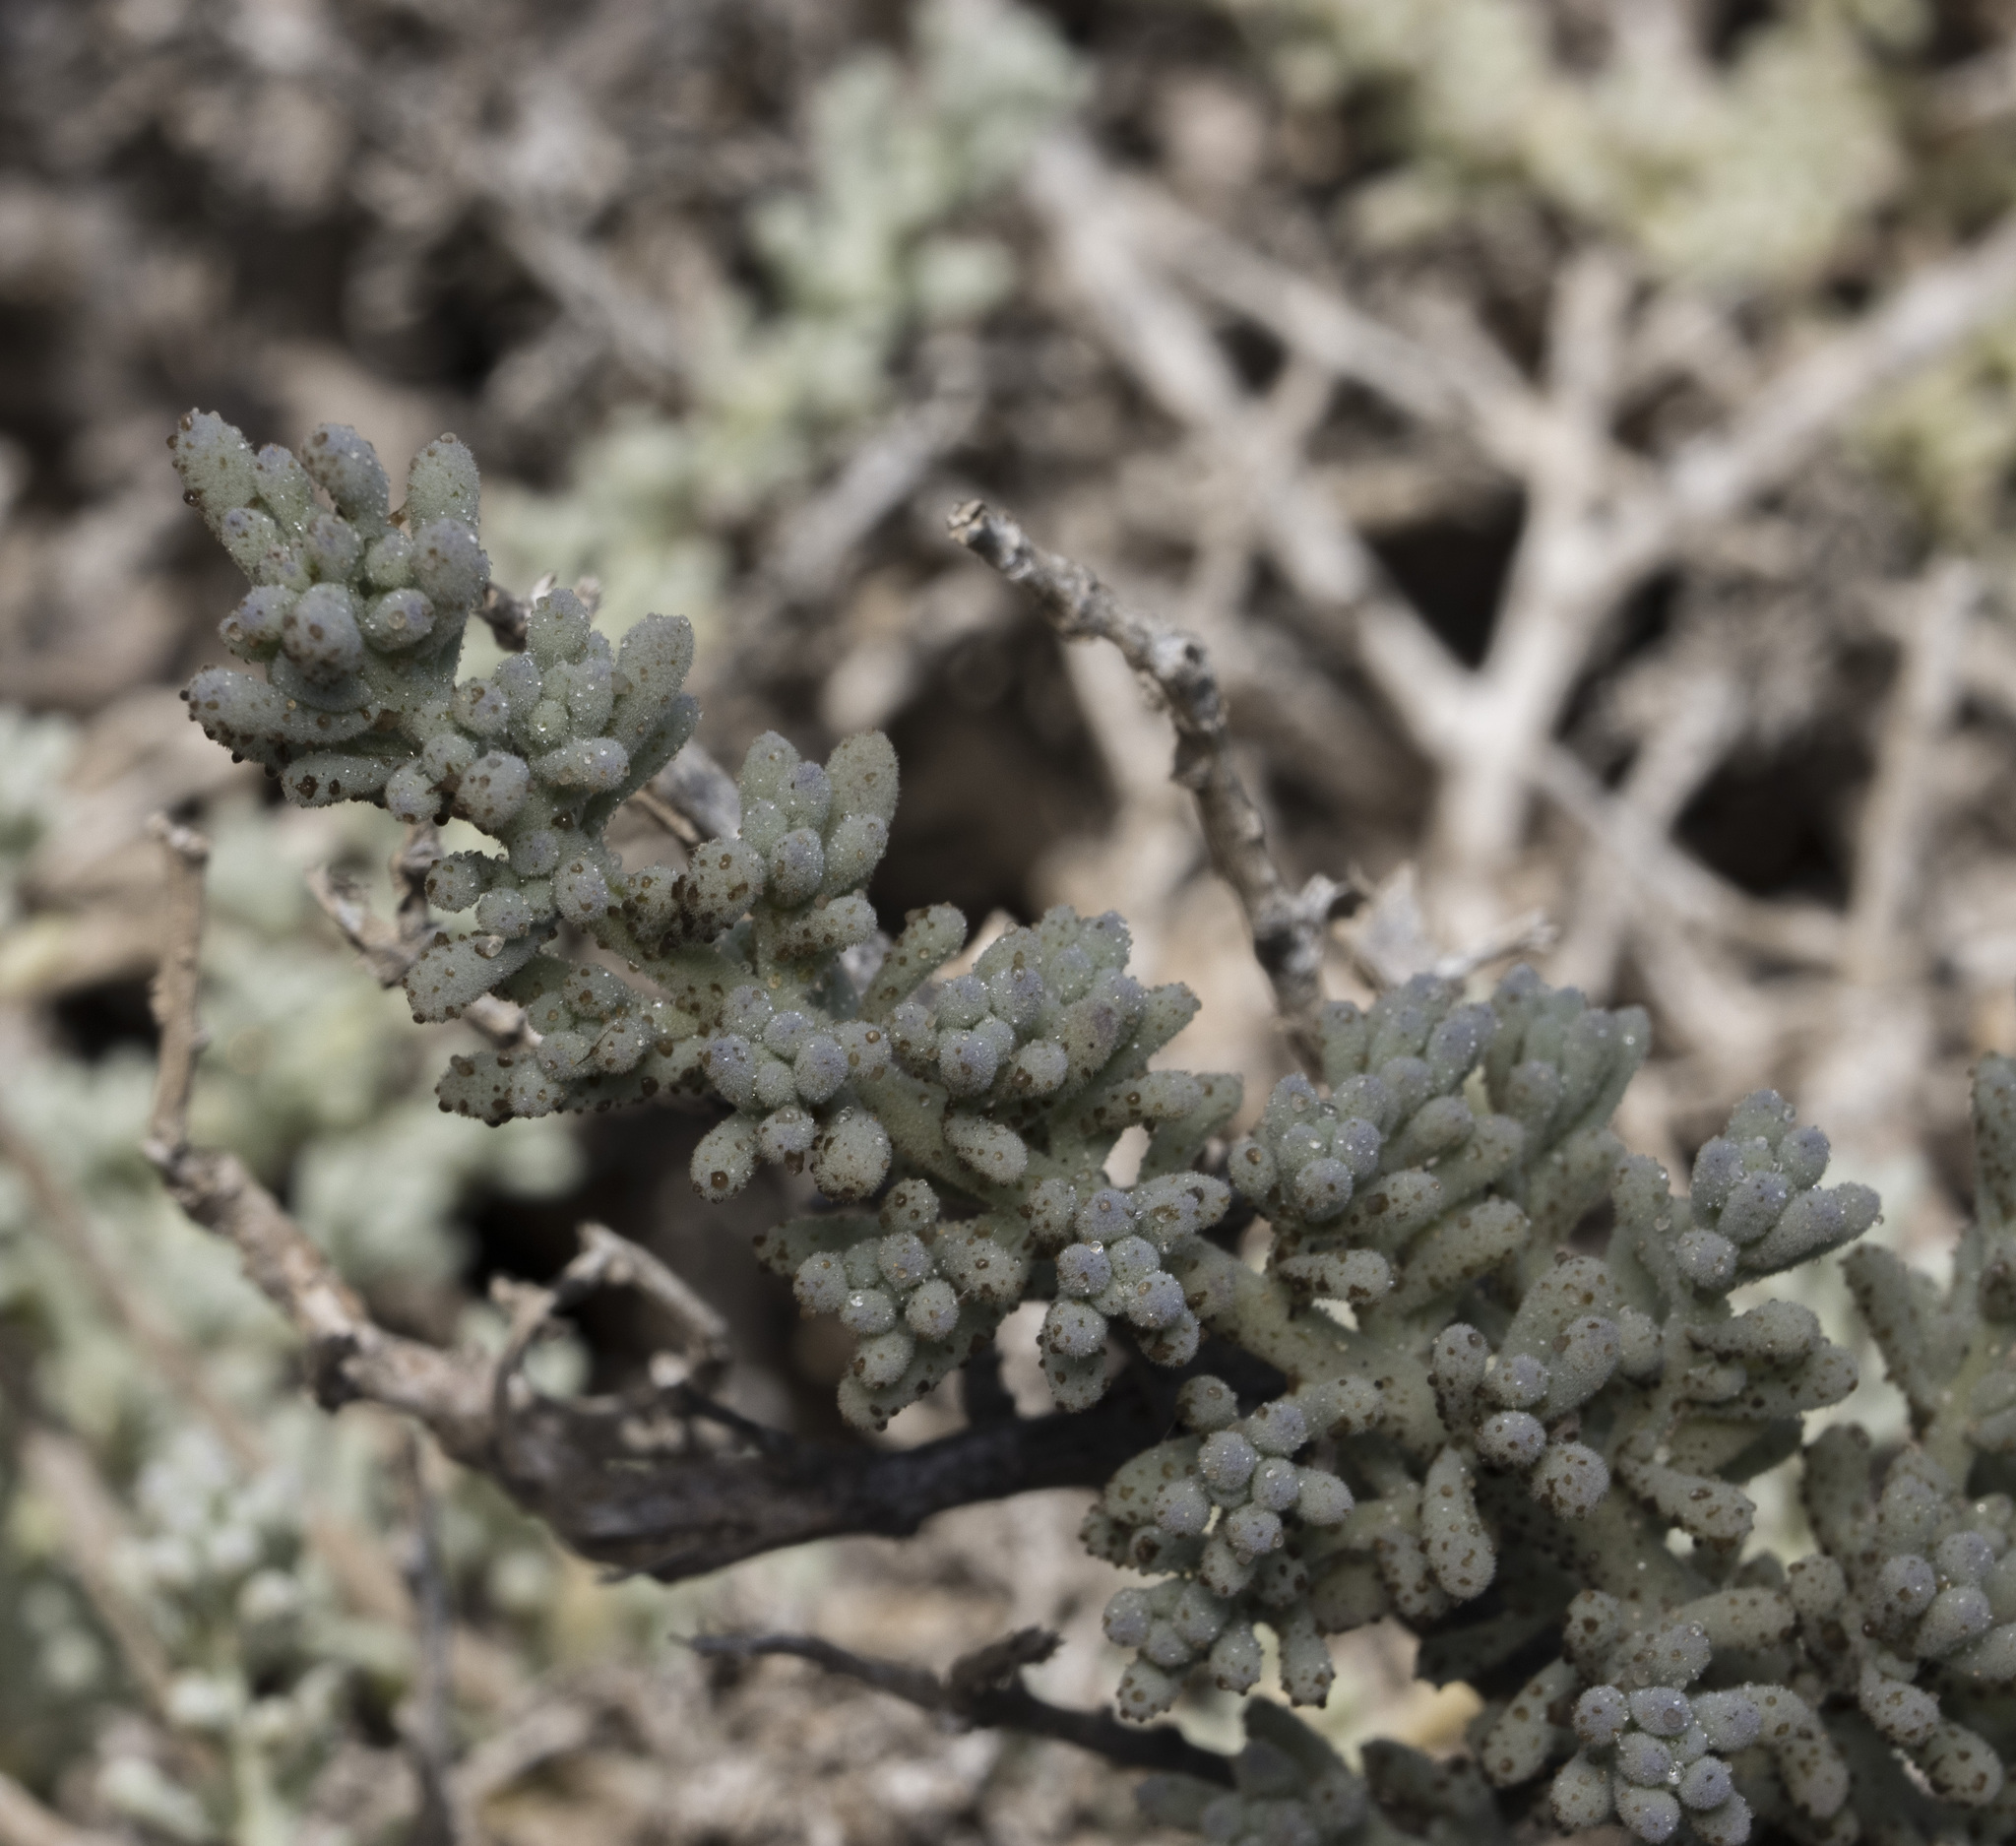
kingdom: Plantae
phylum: Tracheophyta
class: Magnoliopsida
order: Solanales
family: Solanaceae
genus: Nolana
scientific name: Nolana werdermannii
